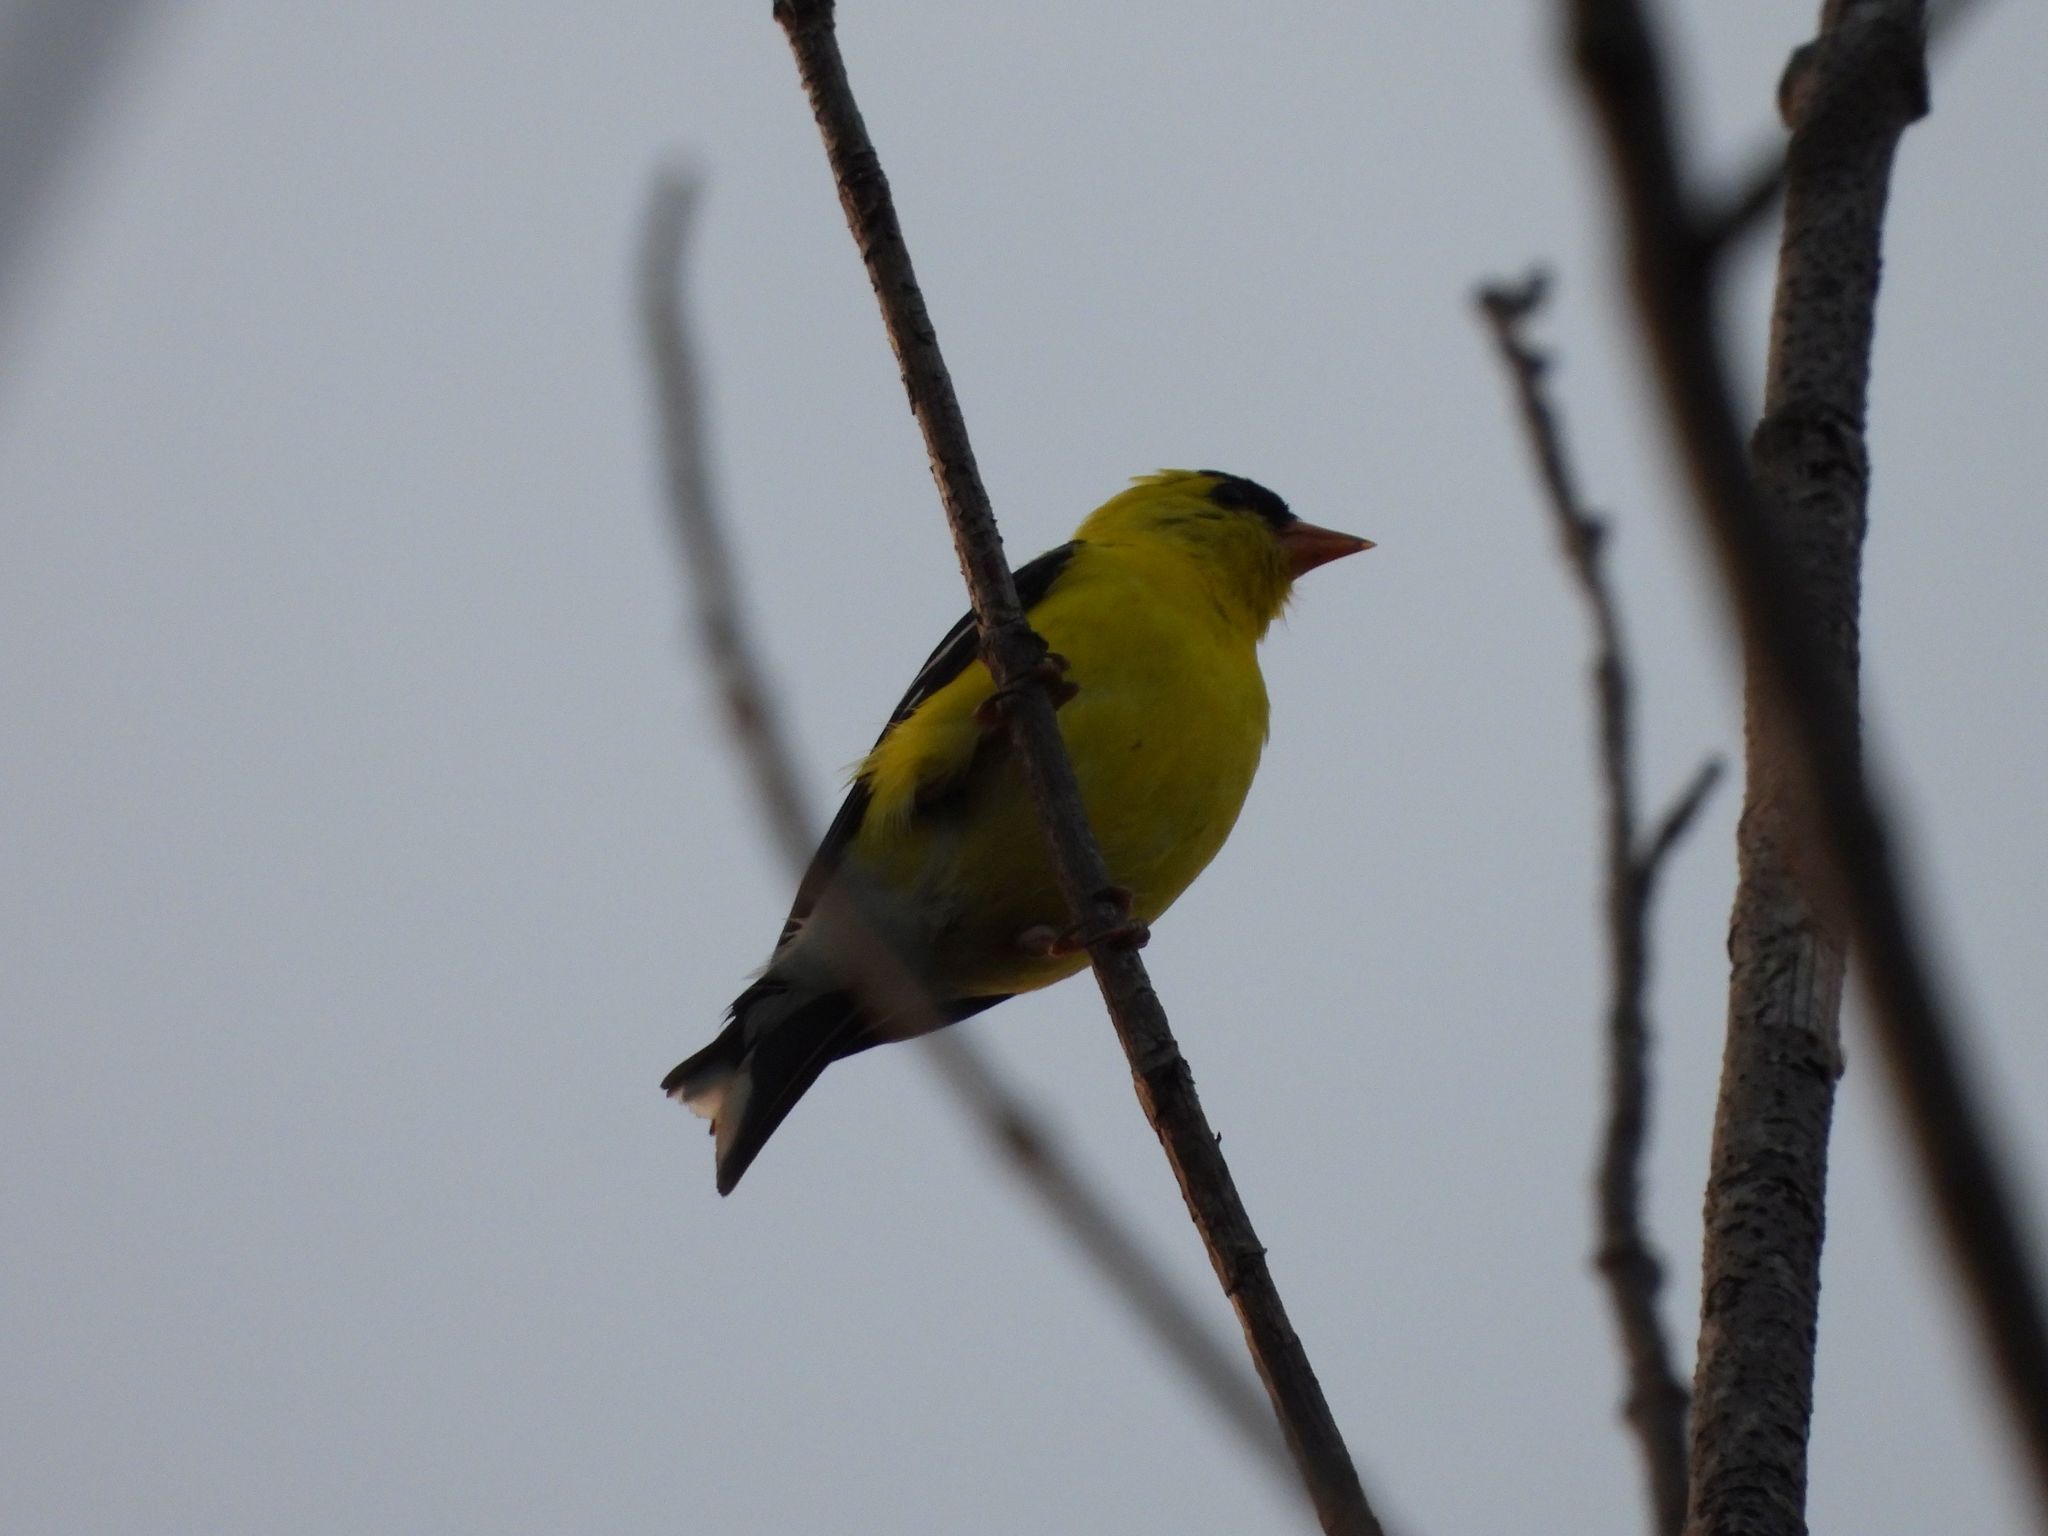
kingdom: Animalia
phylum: Chordata
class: Aves
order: Passeriformes
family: Fringillidae
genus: Spinus
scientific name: Spinus tristis
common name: American goldfinch
